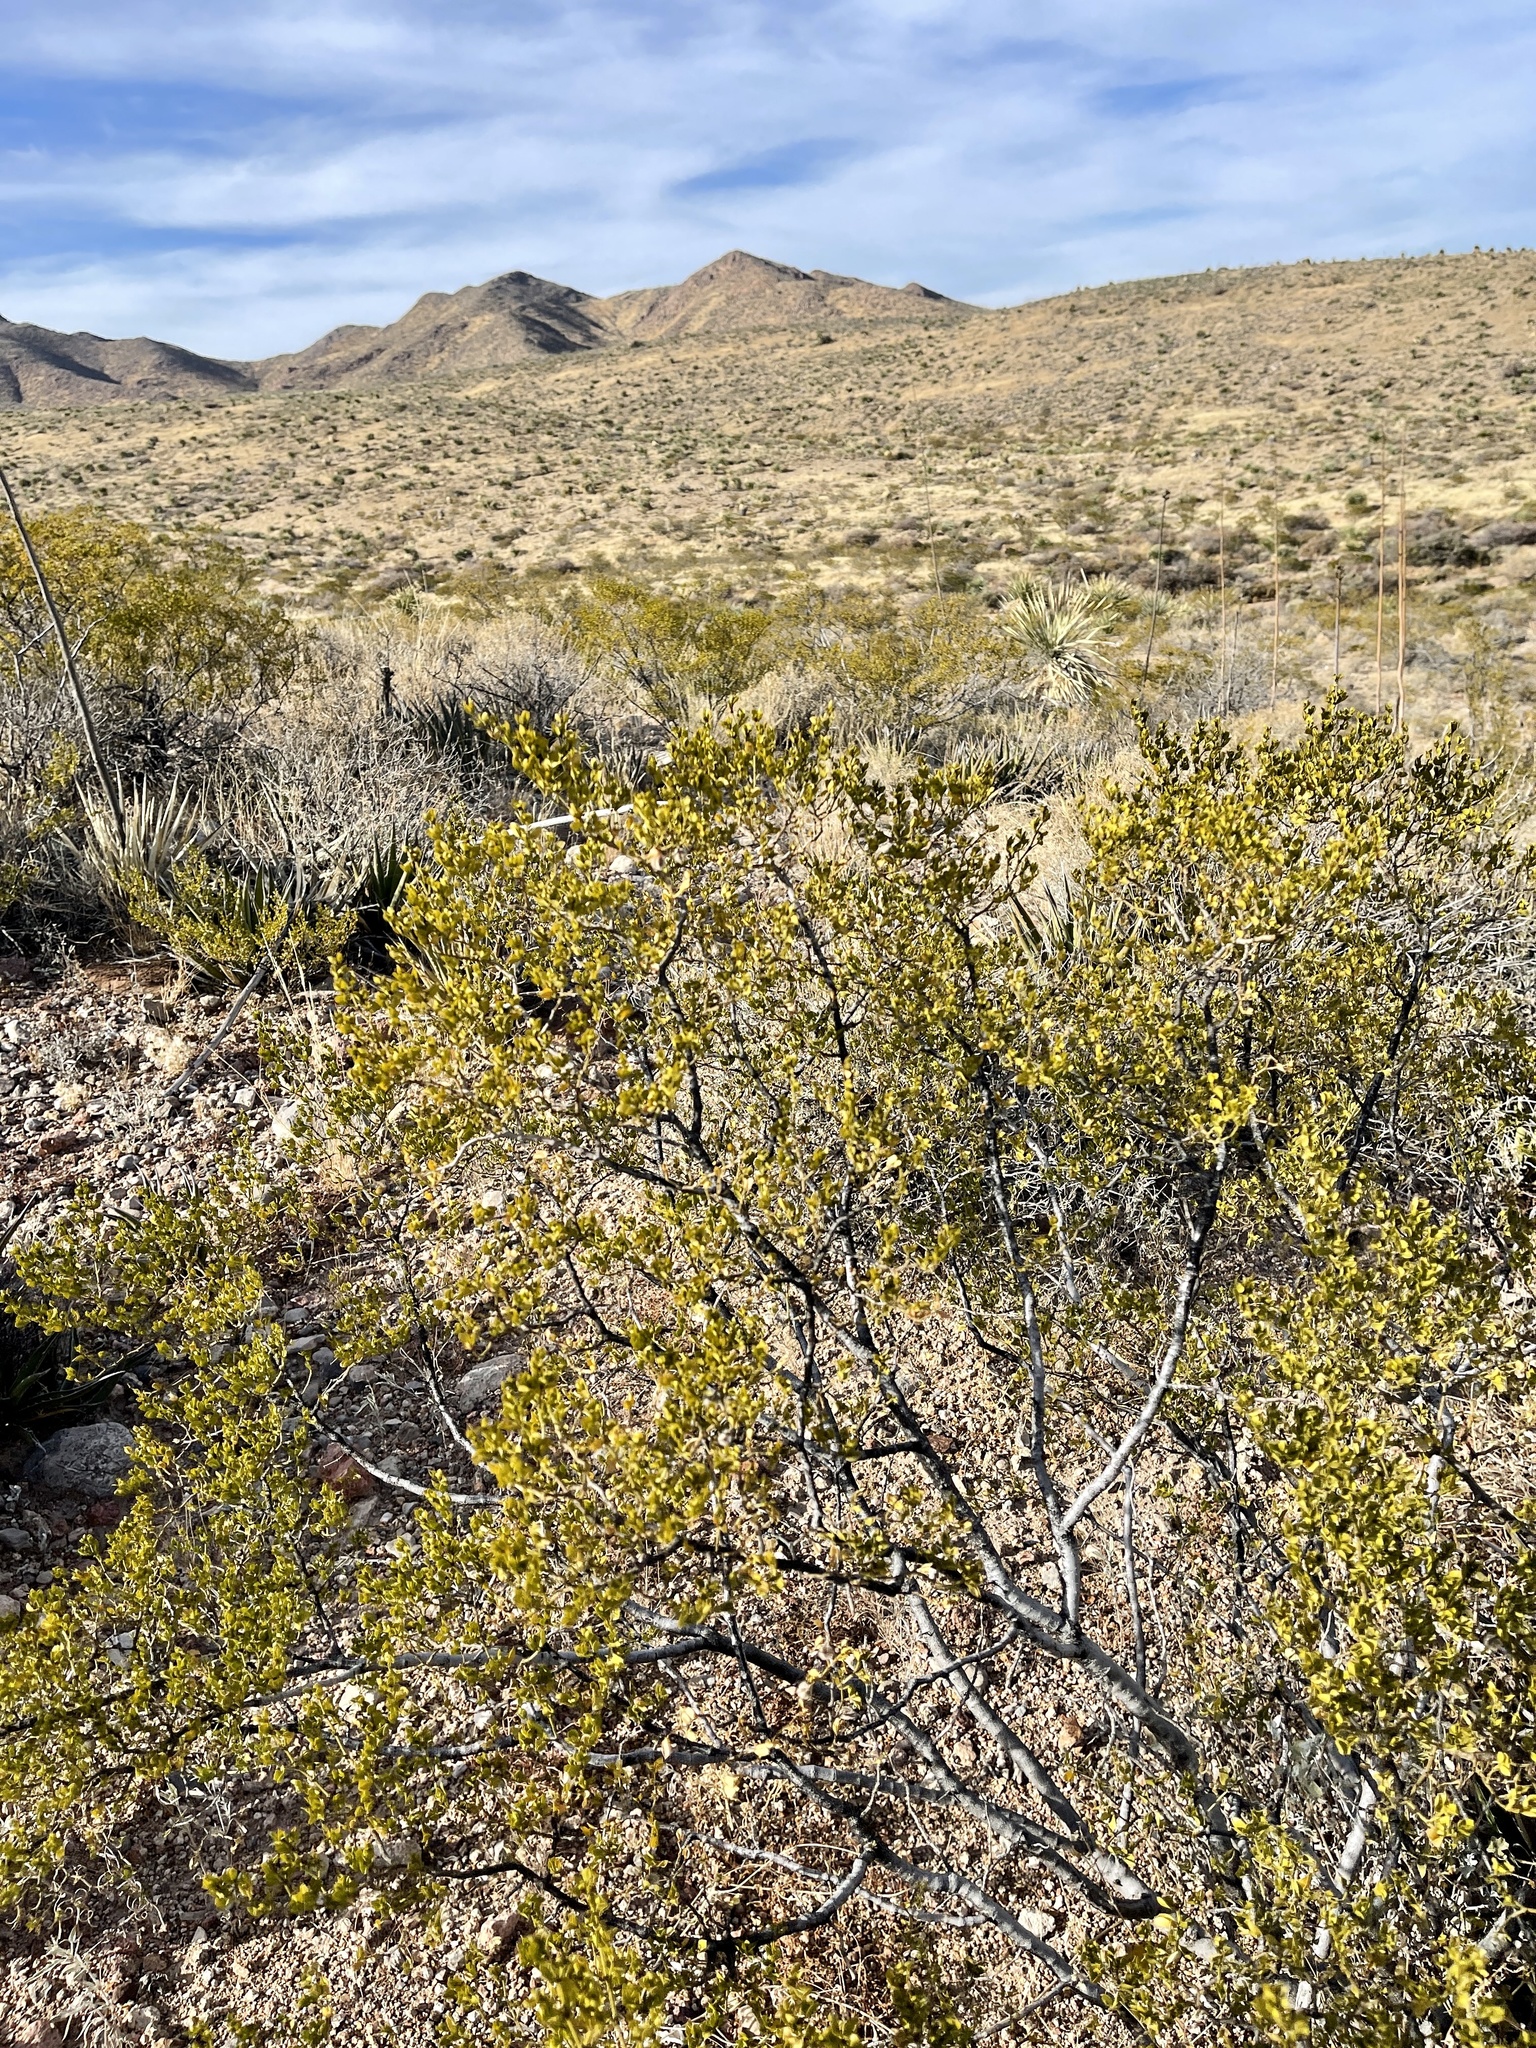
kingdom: Plantae
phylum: Tracheophyta
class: Magnoliopsida
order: Zygophyllales
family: Zygophyllaceae
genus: Larrea
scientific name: Larrea tridentata
